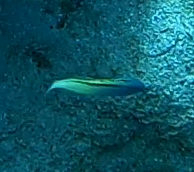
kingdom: Animalia
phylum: Chordata
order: Perciformes
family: Blenniidae
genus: Meiacanthus
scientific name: Meiacanthus nigrolineatus
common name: Blackline fangblenny
